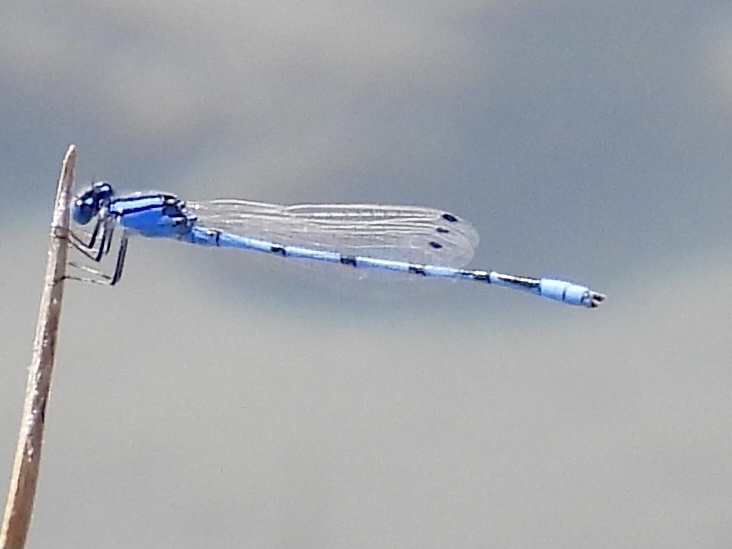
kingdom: Animalia
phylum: Arthropoda
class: Insecta
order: Odonata
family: Coenagrionidae
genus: Enallagma
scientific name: Enallagma civile
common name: Damselfly
